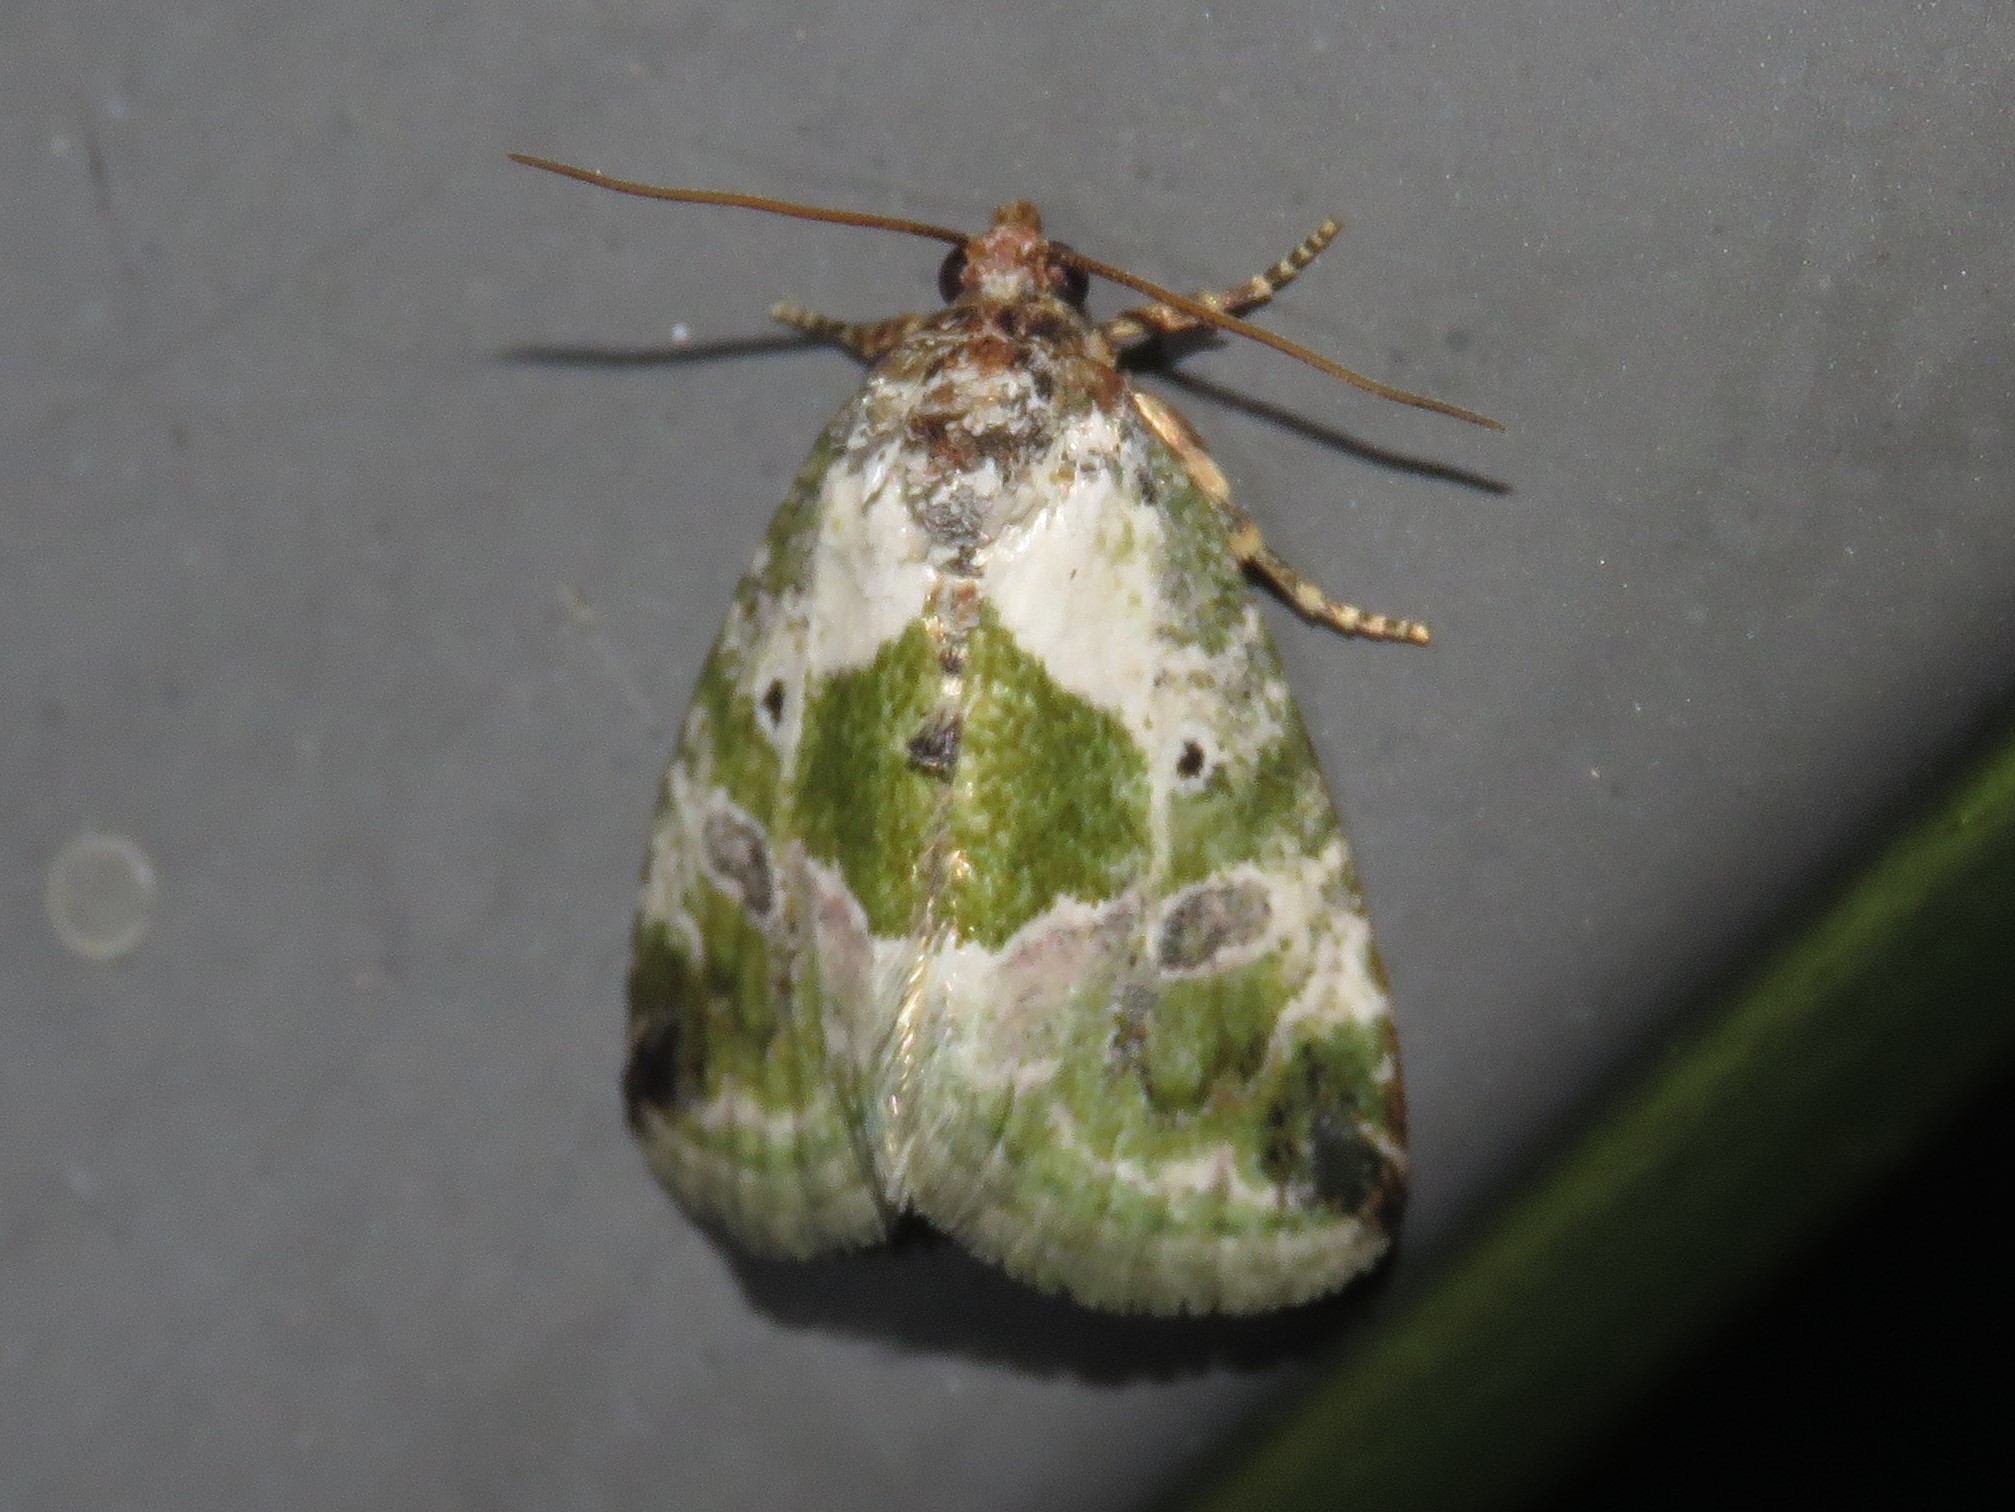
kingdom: Animalia
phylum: Arthropoda
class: Insecta
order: Lepidoptera
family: Noctuidae
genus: Maliattha
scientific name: Maliattha synochitis
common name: Black-dotted glyph
